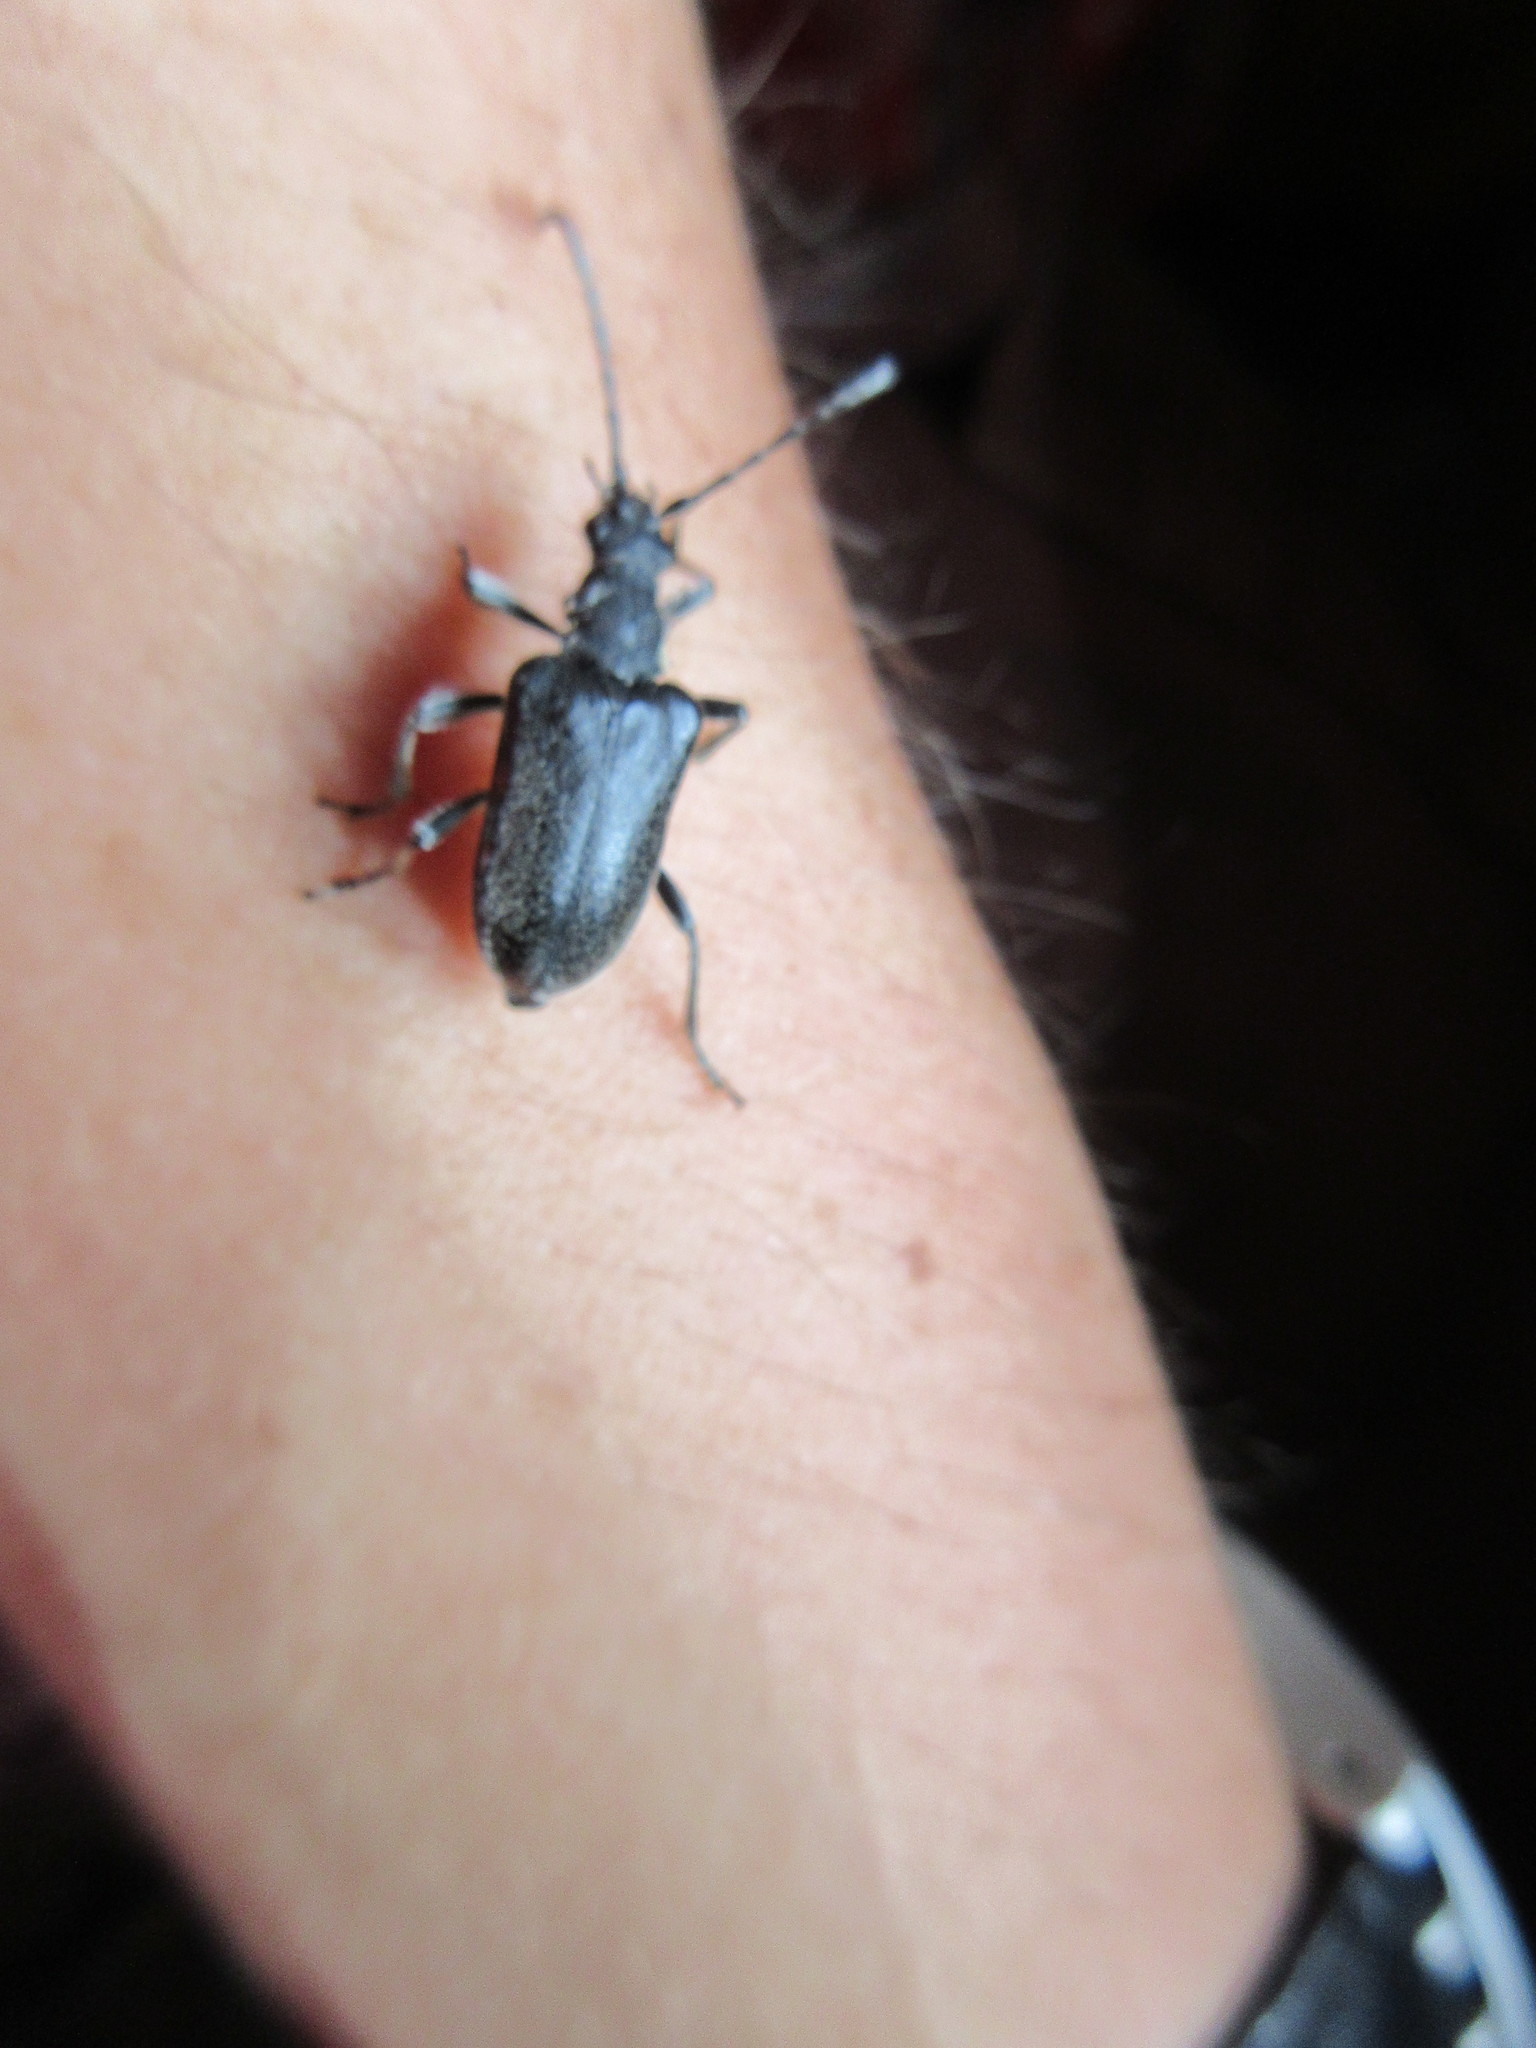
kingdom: Animalia
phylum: Arthropoda
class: Insecta
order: Coleoptera
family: Cerambycidae
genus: Brachyta
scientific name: Brachyta interrogationis
